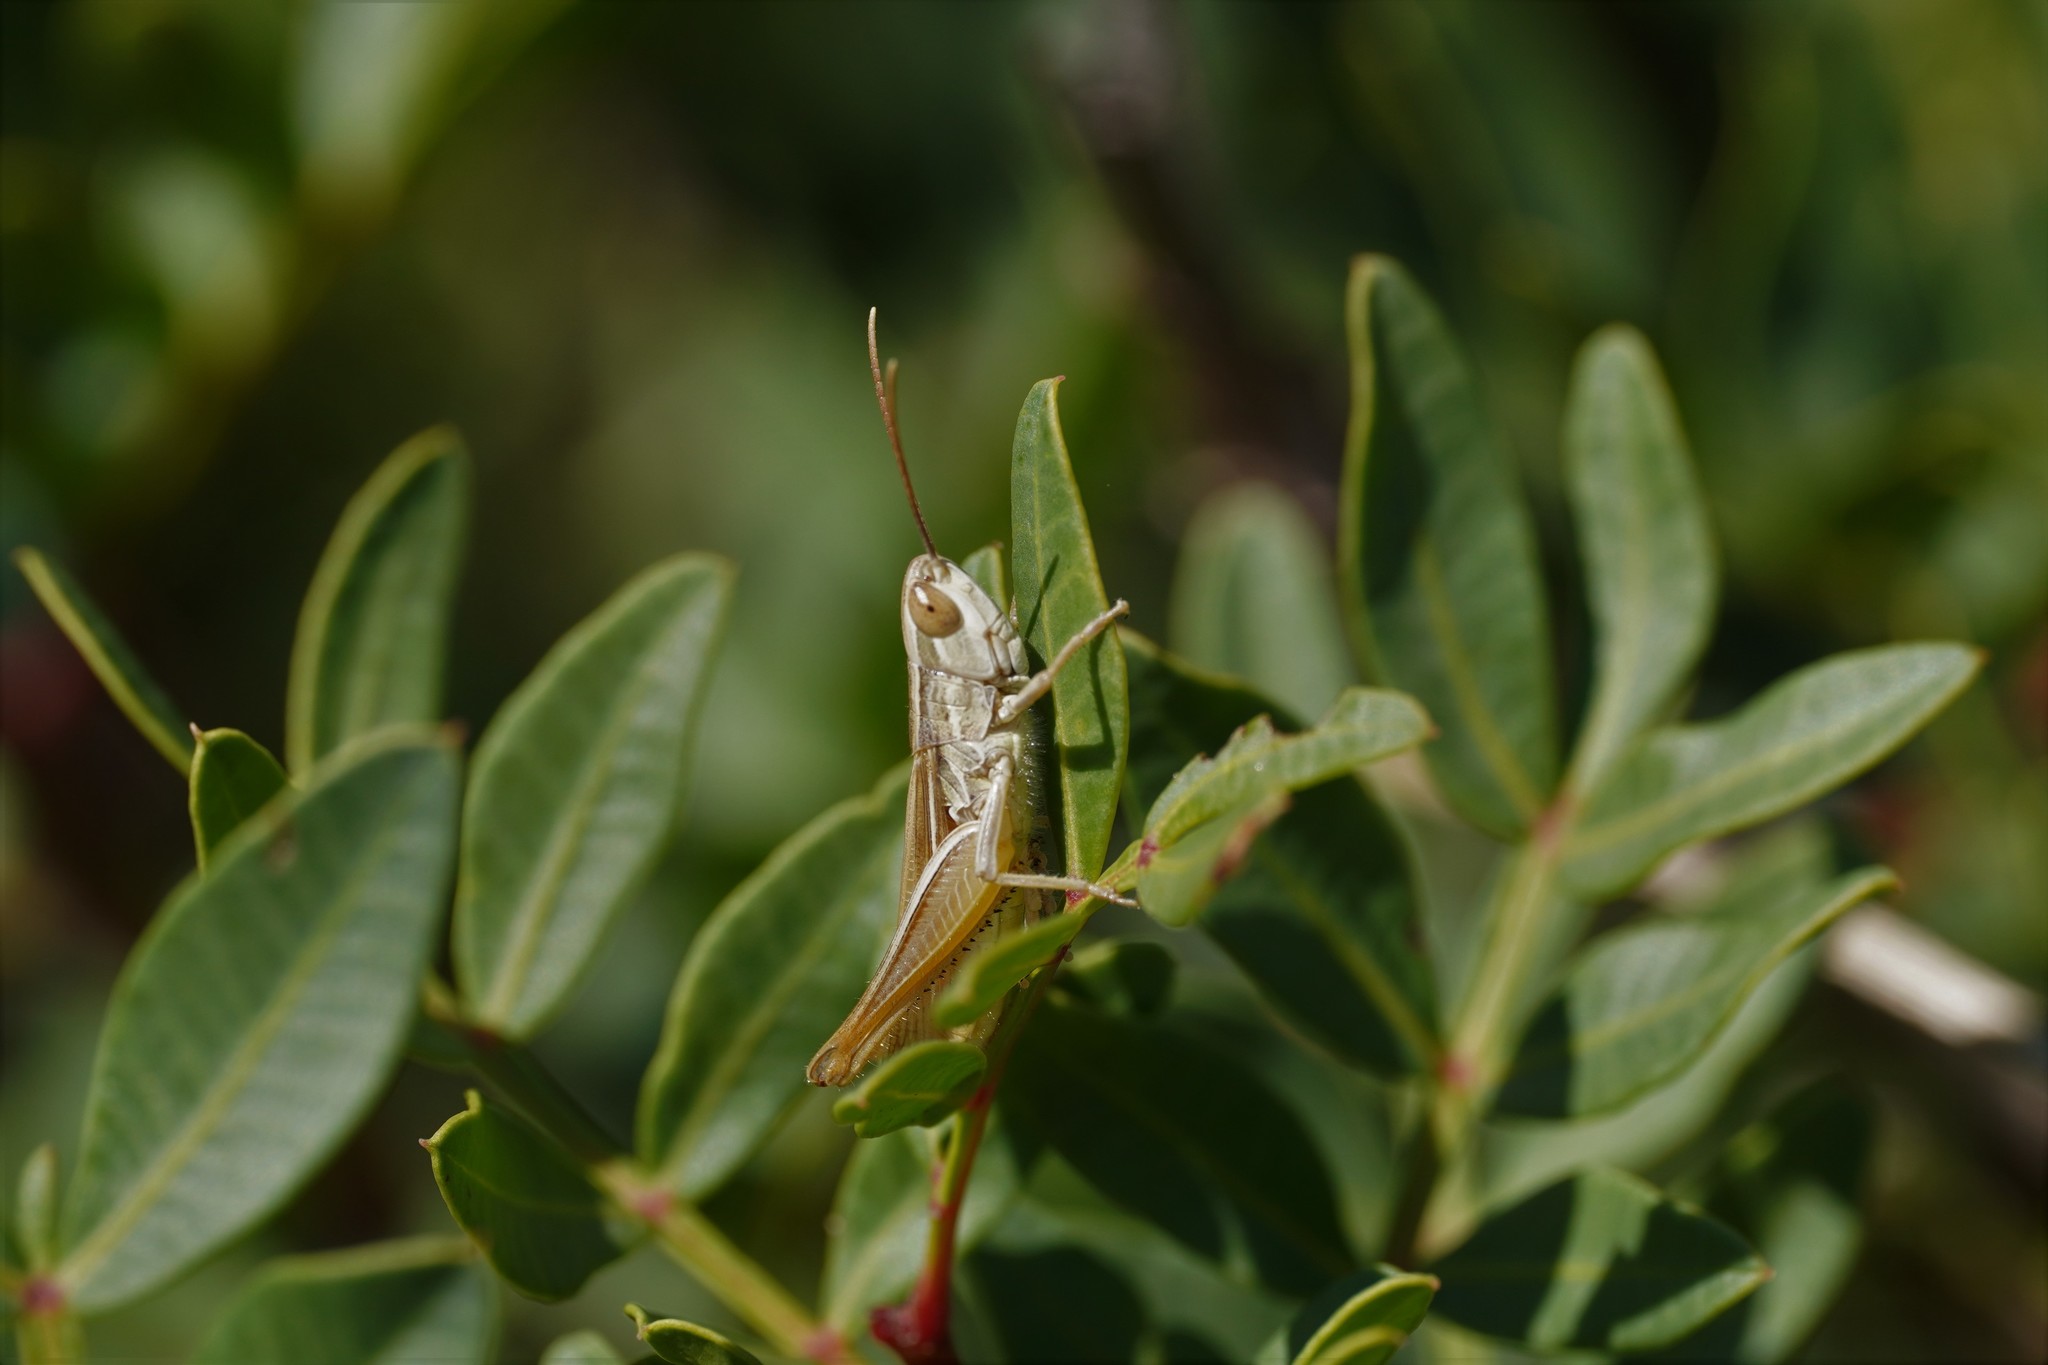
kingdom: Animalia
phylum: Arthropoda
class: Insecta
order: Orthoptera
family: Acrididae
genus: Euchorthippus
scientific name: Euchorthippus elegantulus
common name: Elegant straw grasshopper
